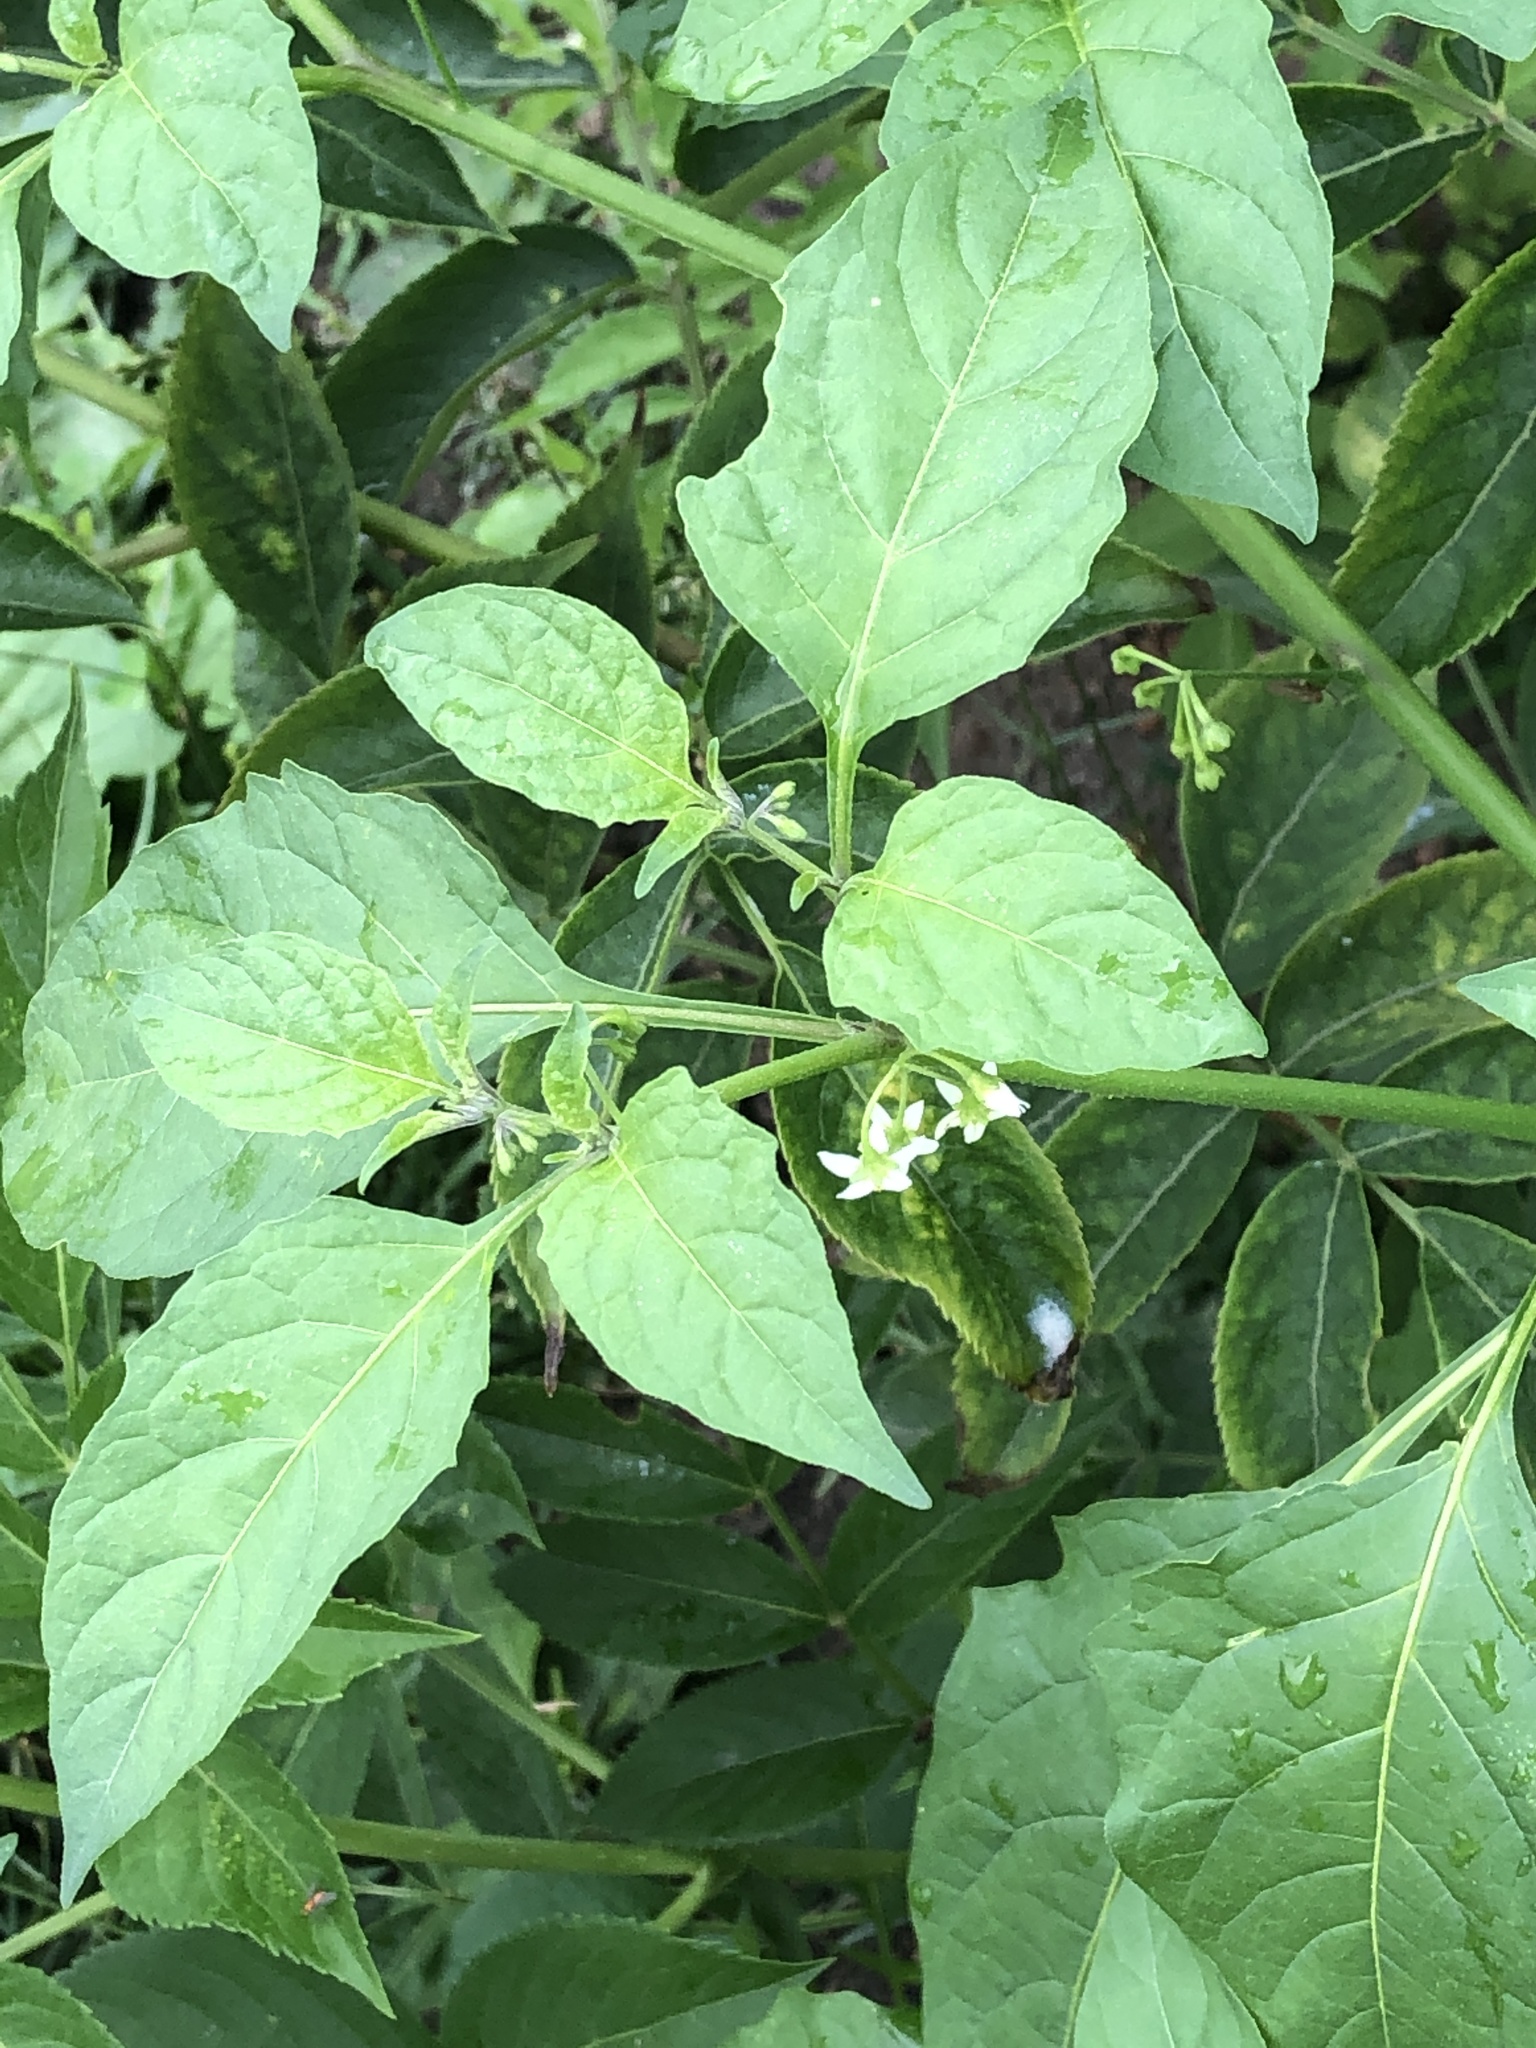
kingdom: Plantae
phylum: Tracheophyta
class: Magnoliopsida
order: Solanales
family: Solanaceae
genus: Solanum
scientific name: Solanum emulans
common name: Eastern black nightshade
